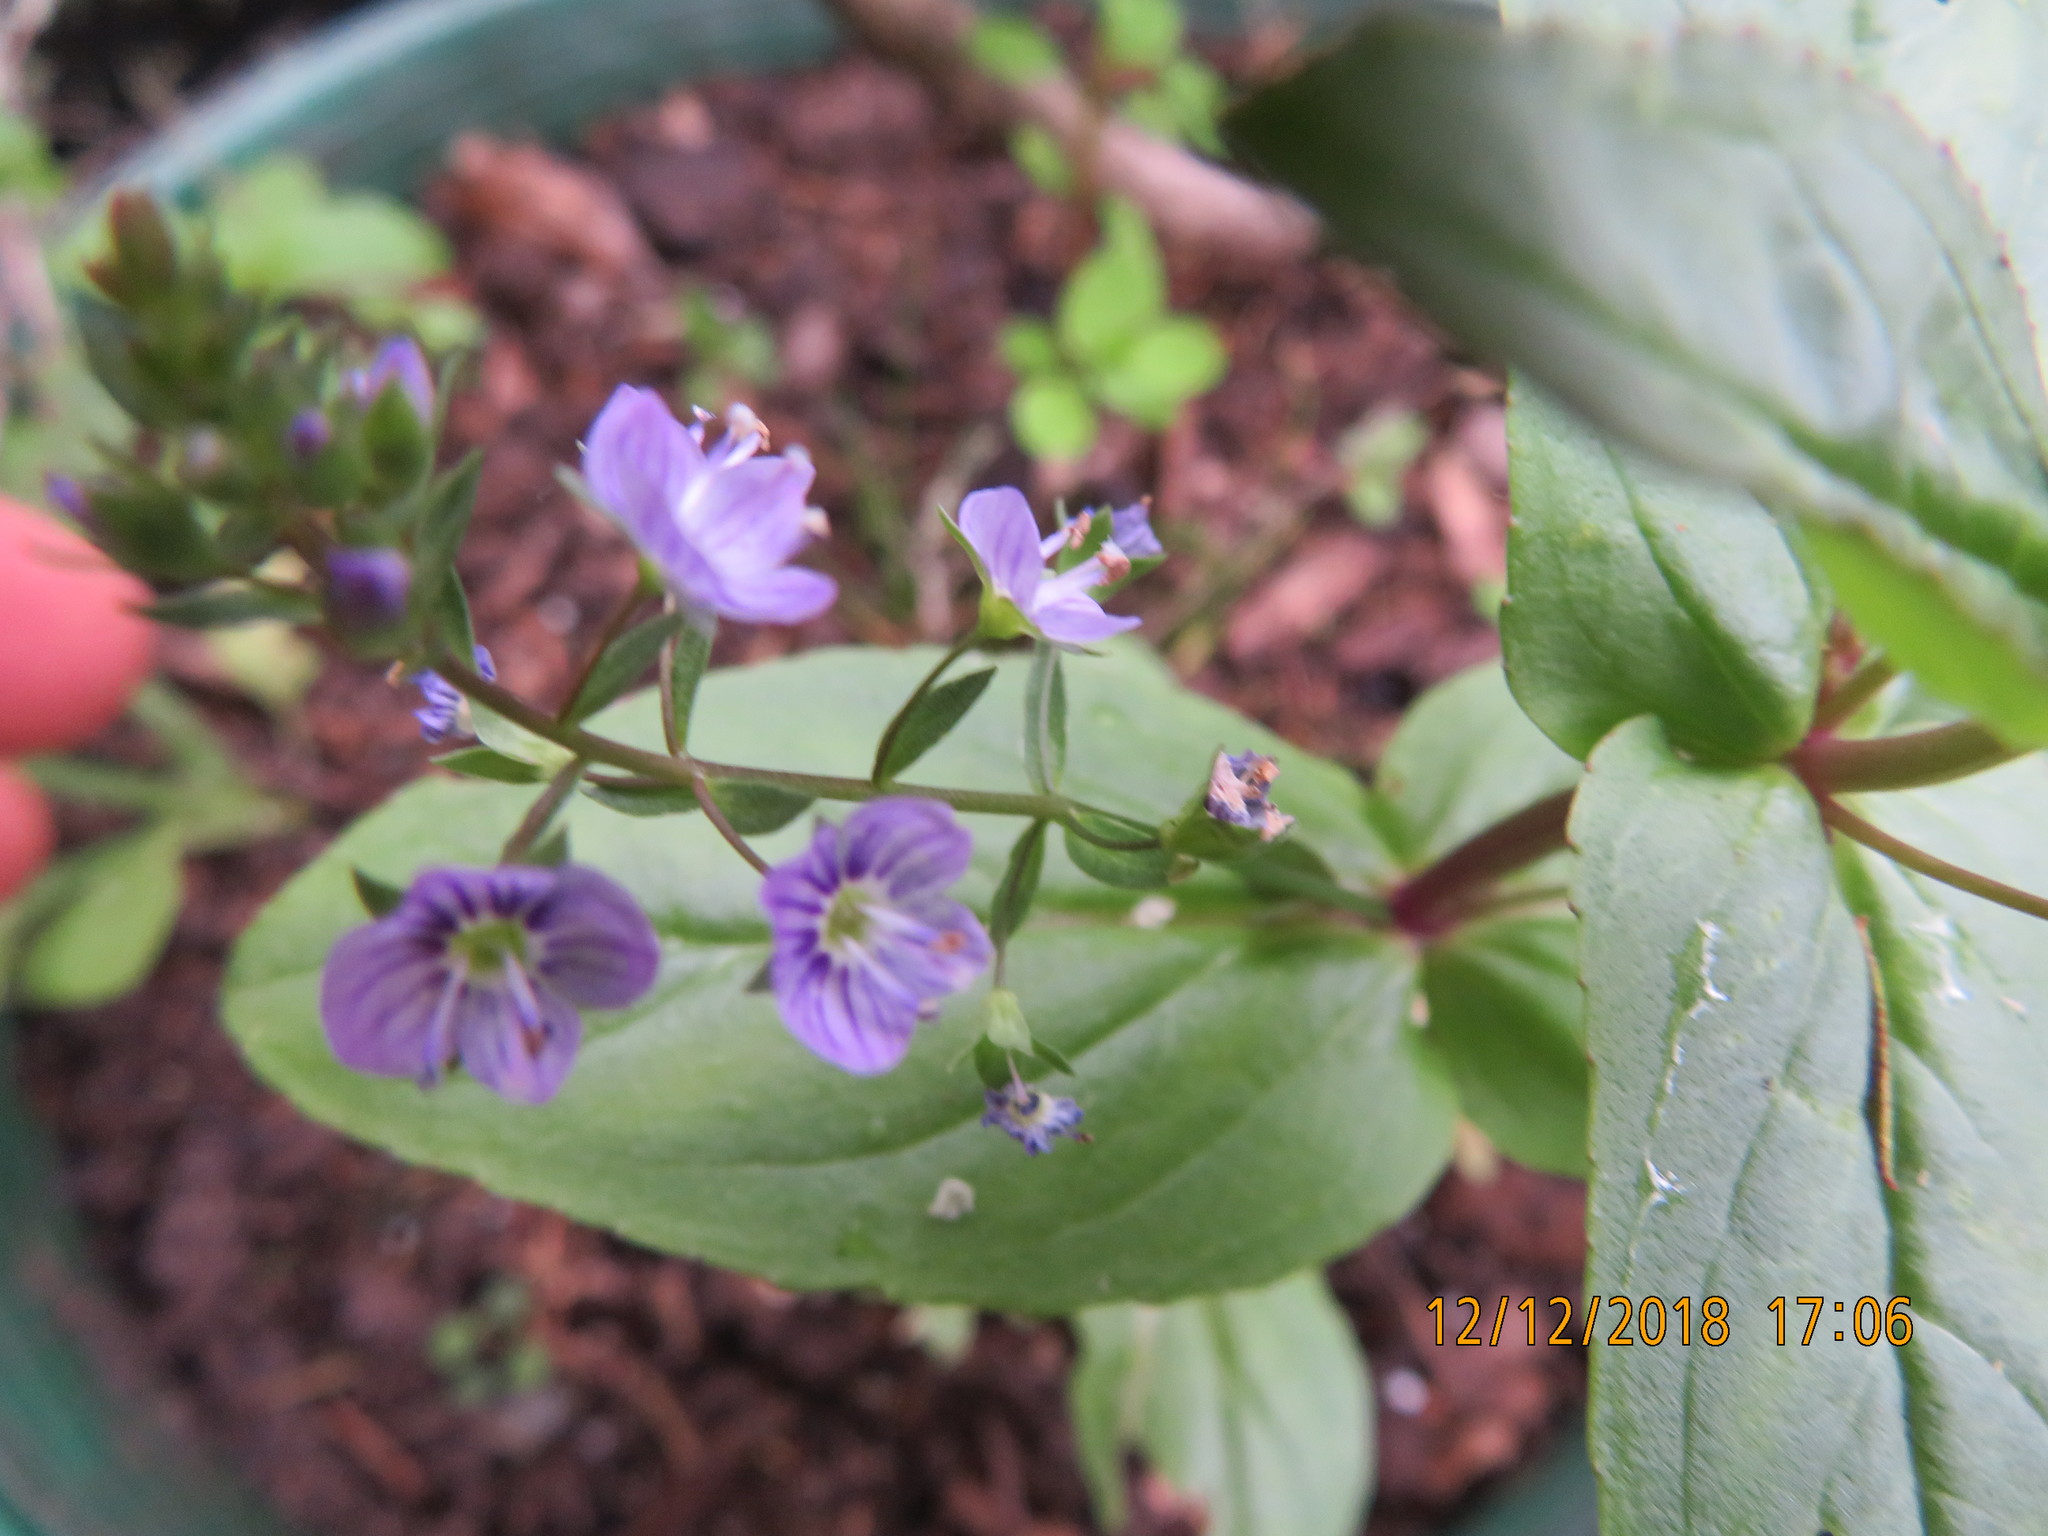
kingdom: Animalia
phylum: Arthropoda
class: Insecta
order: Hemiptera
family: Ricaniidae
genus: Scolypopa
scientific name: Scolypopa australis
